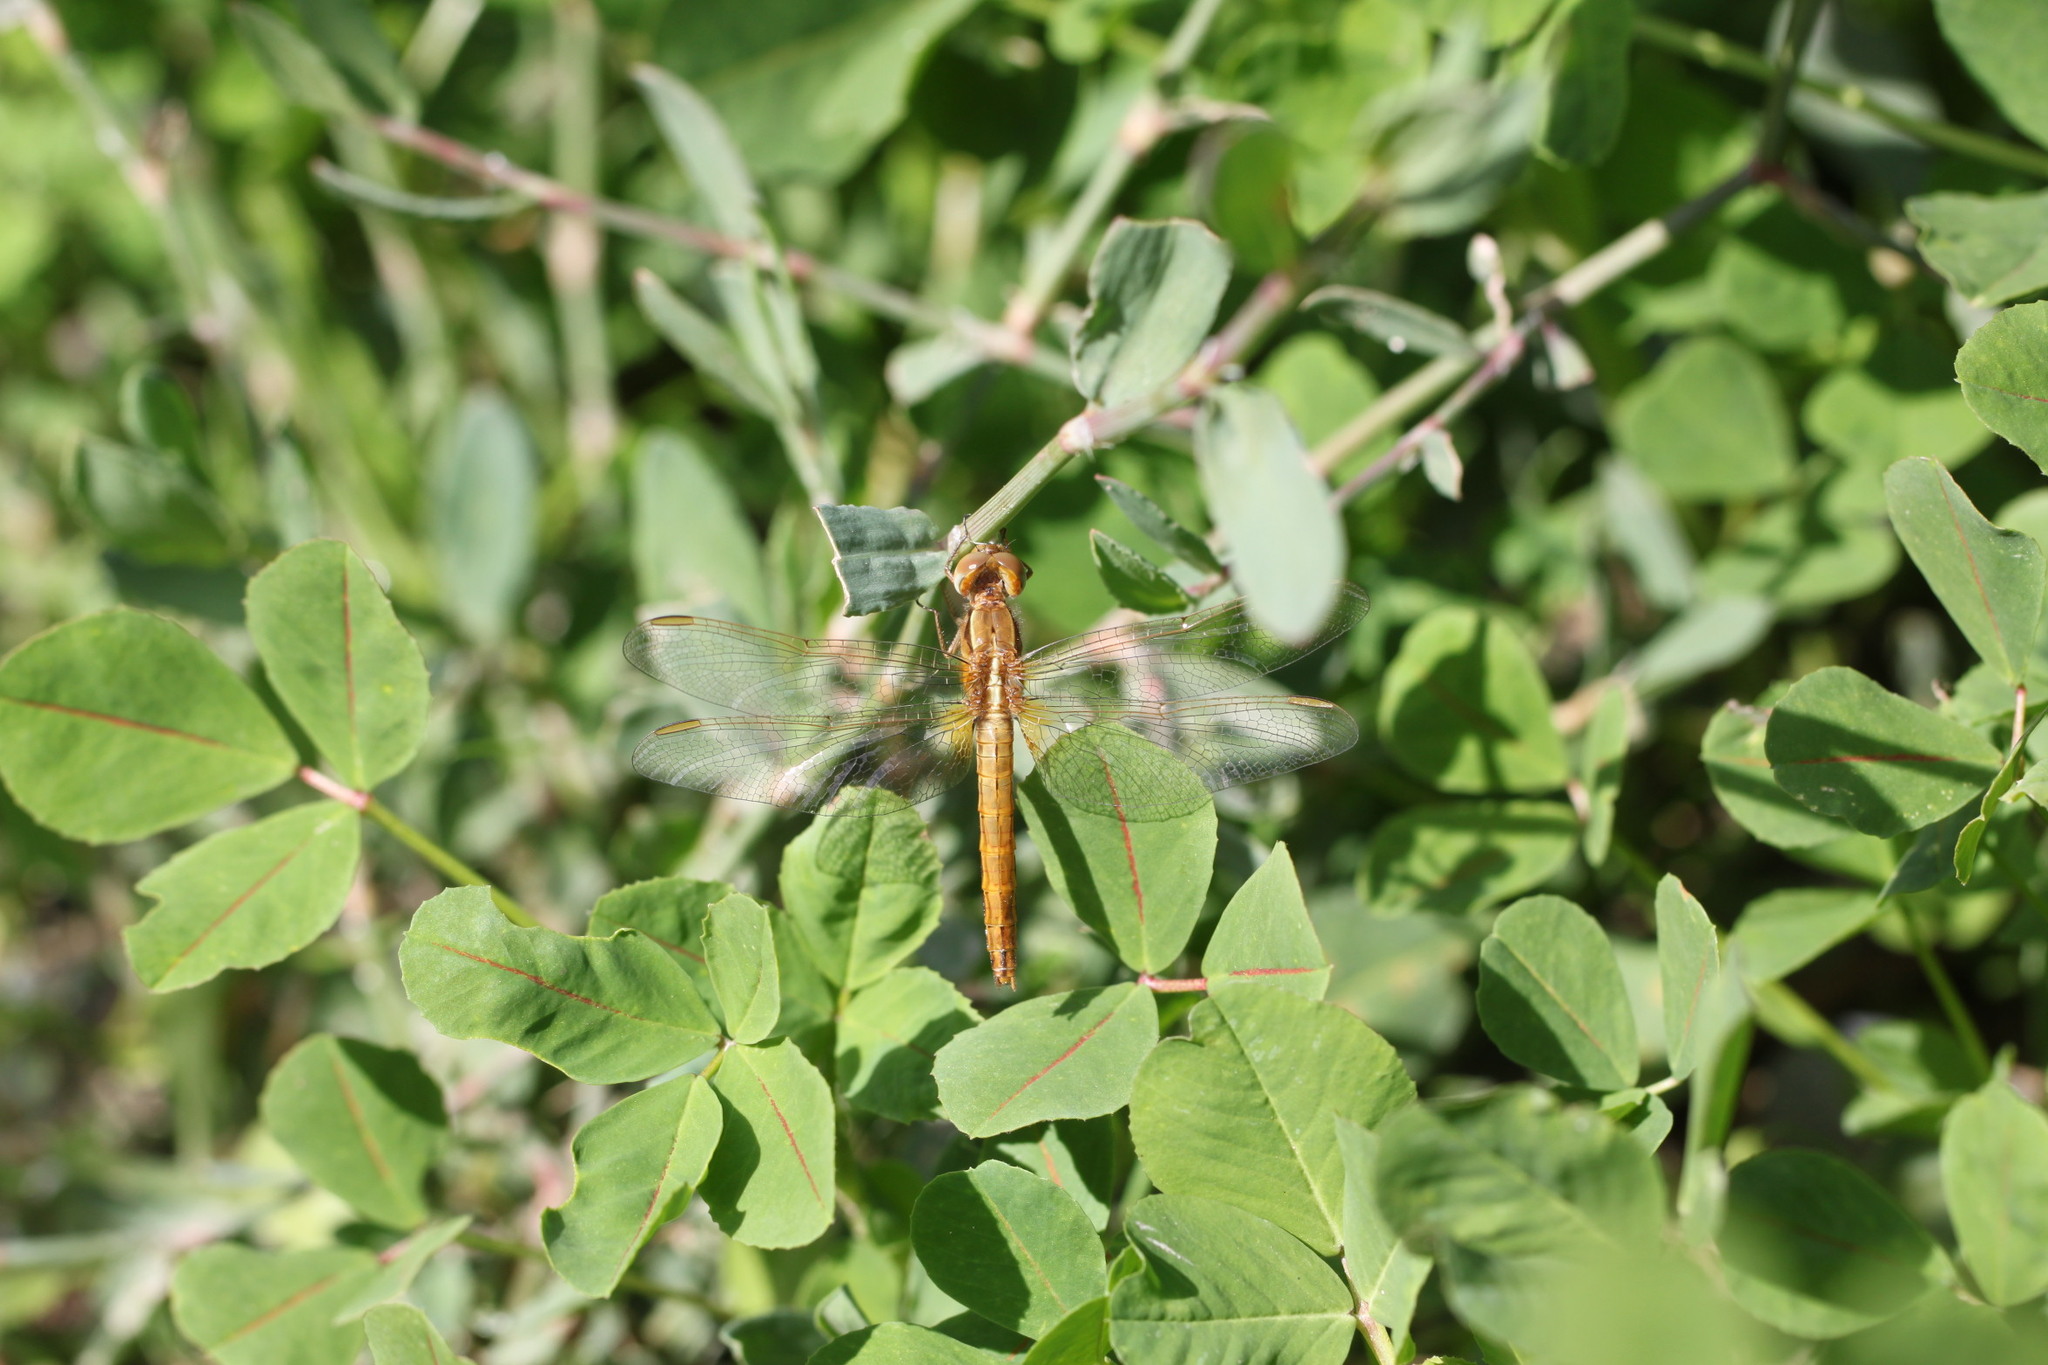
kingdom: Animalia
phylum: Arthropoda
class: Insecta
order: Odonata
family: Libellulidae
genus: Crocothemis
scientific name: Crocothemis erythraea
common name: Scarlet dragonfly
